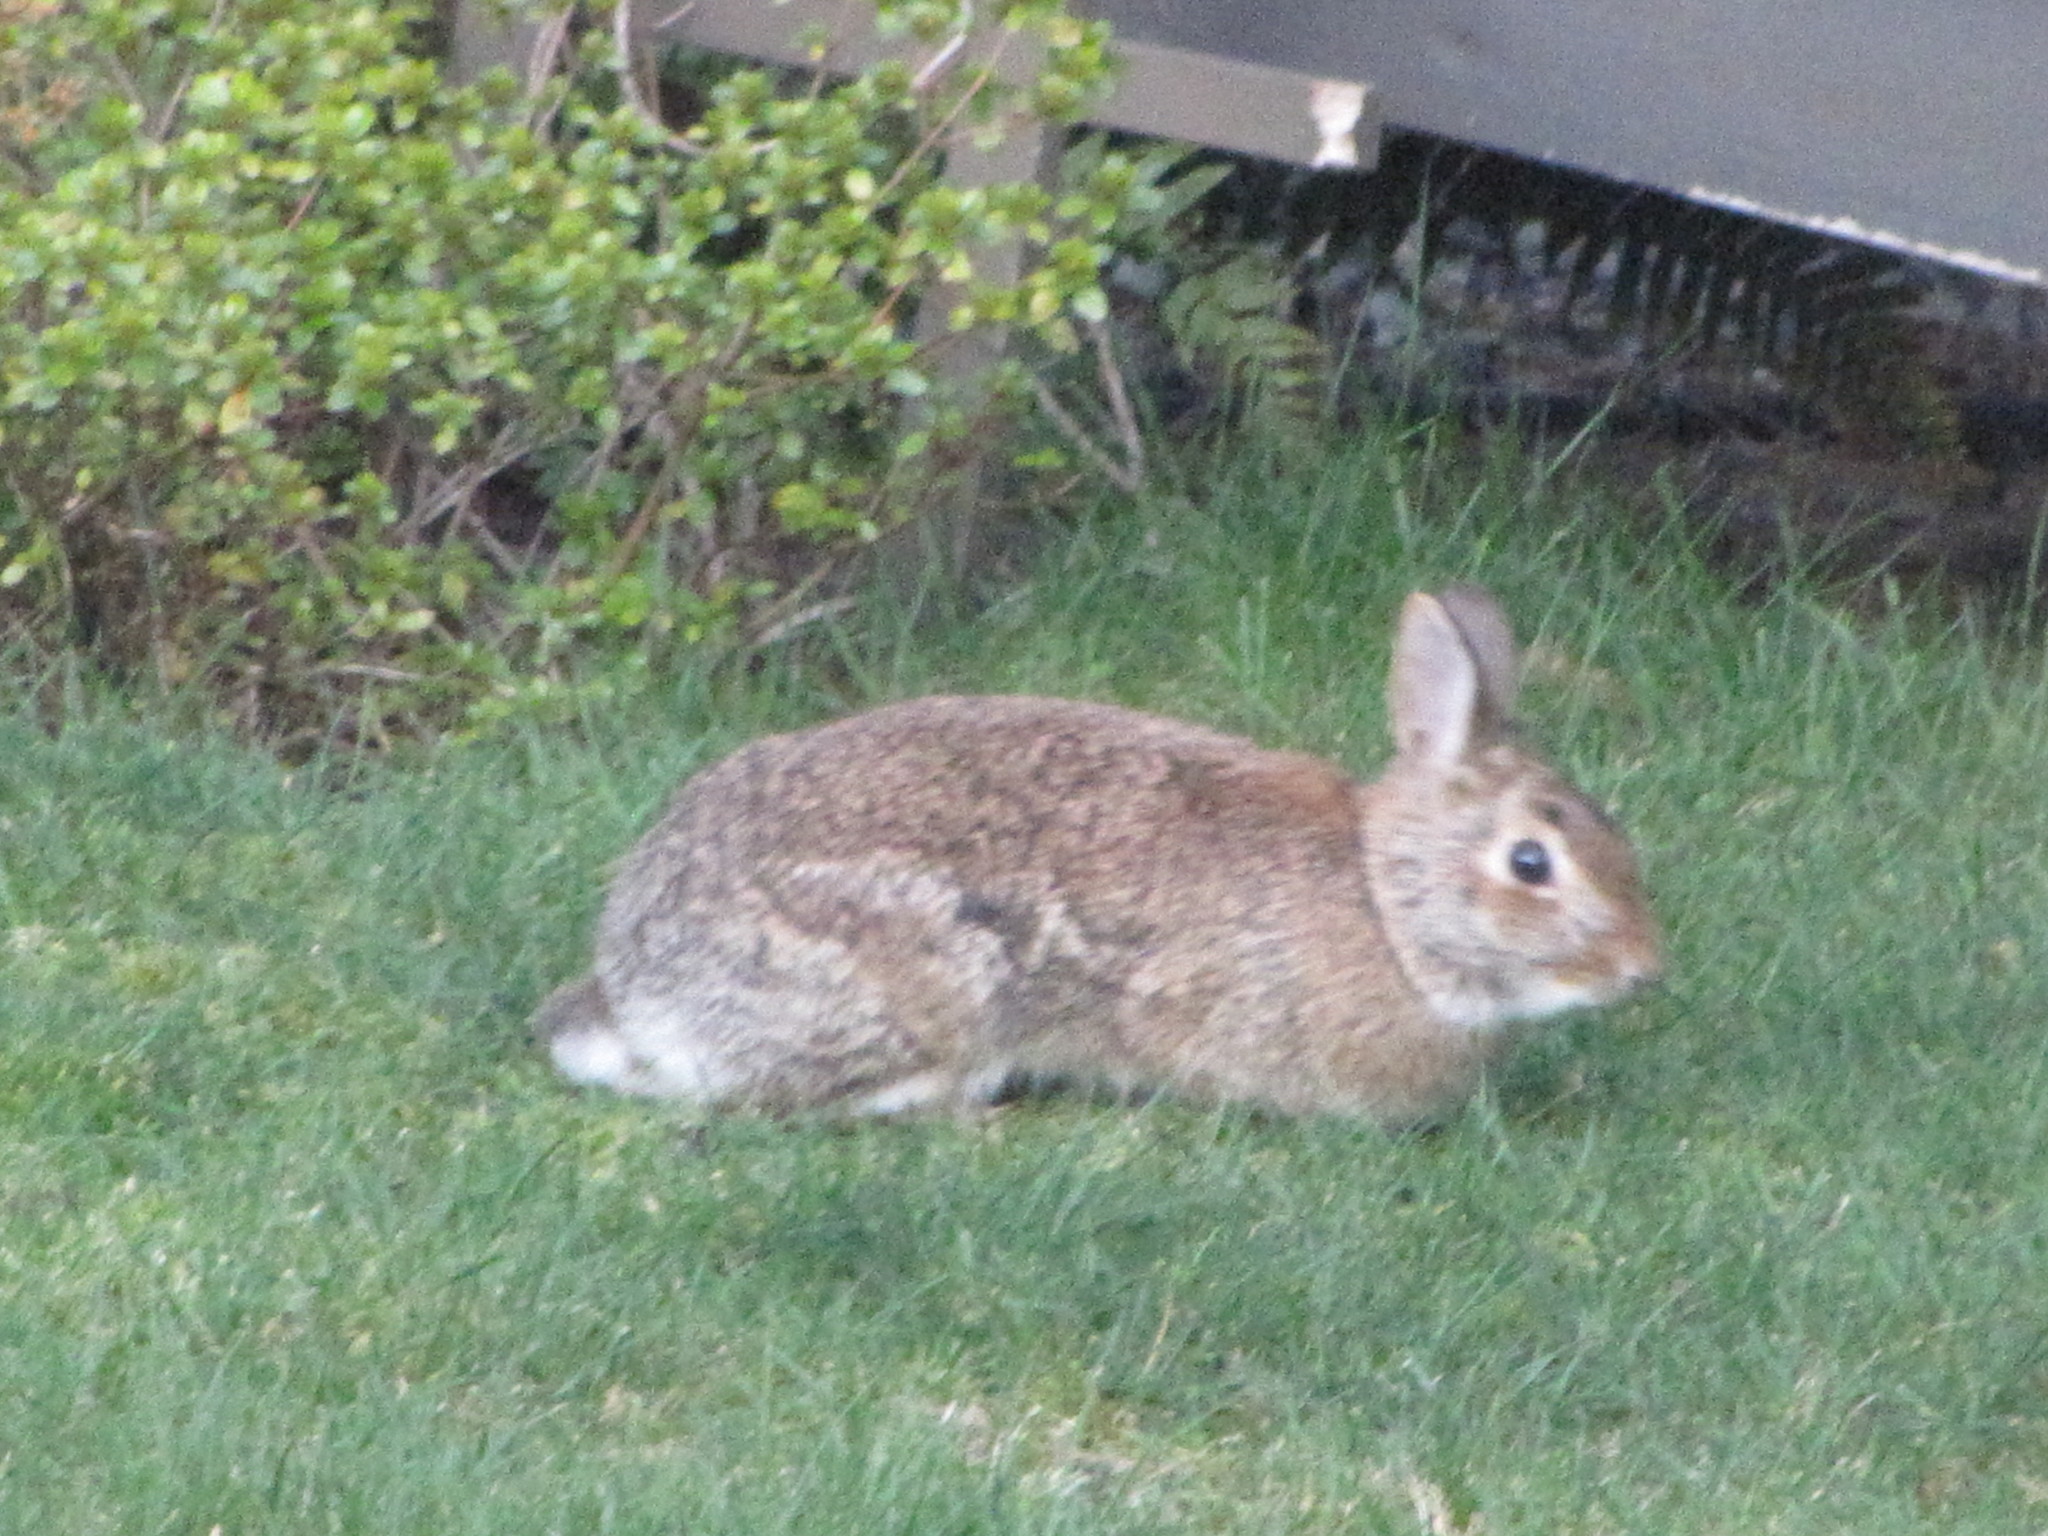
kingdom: Animalia
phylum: Chordata
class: Mammalia
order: Lagomorpha
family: Leporidae
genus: Sylvilagus
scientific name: Sylvilagus floridanus
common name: Eastern cottontail
